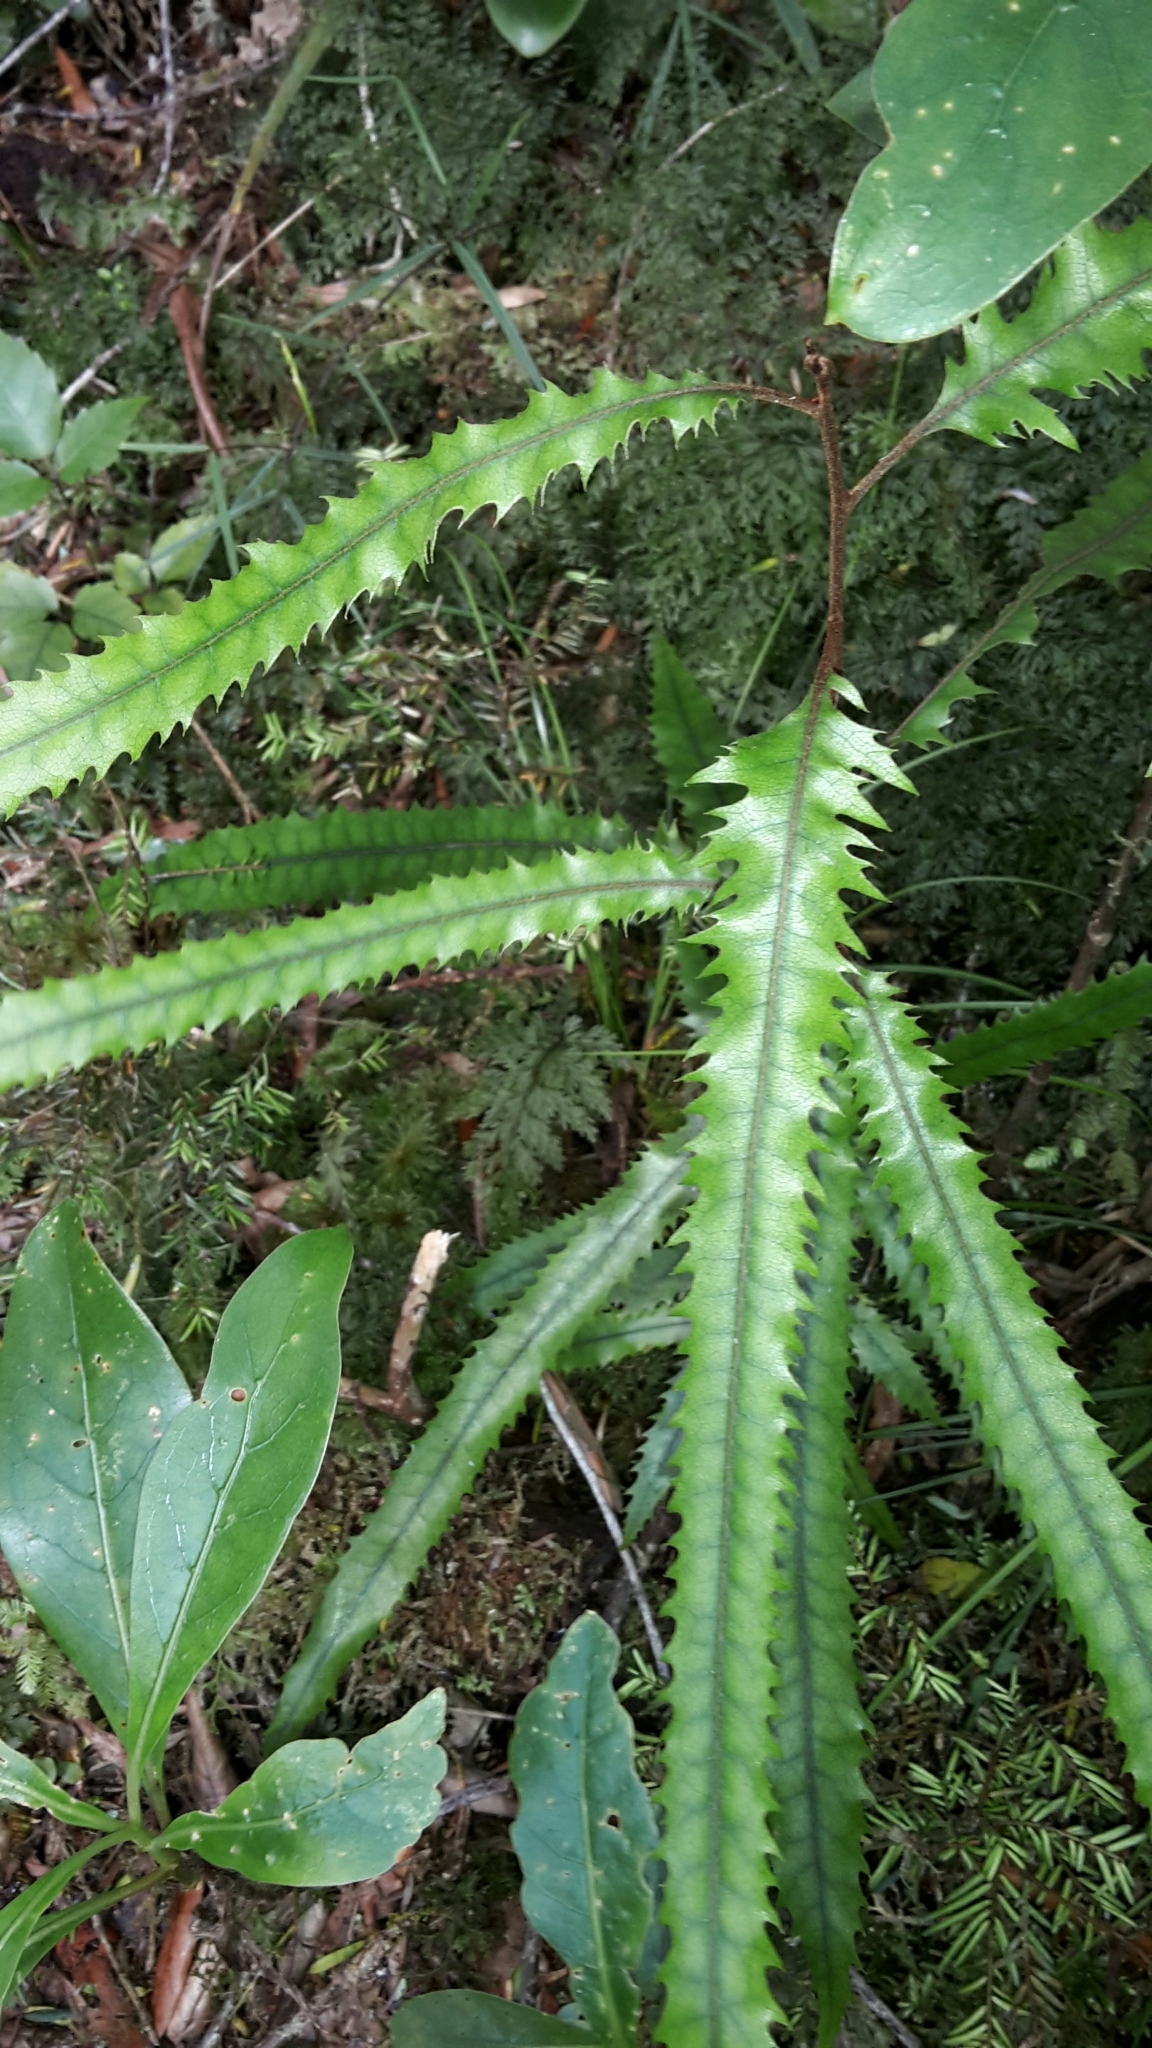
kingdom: Plantae
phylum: Tracheophyta
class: Magnoliopsida
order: Proteales
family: Proteaceae
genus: Knightia
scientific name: Knightia excelsa
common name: New zealand-honeysuckle
